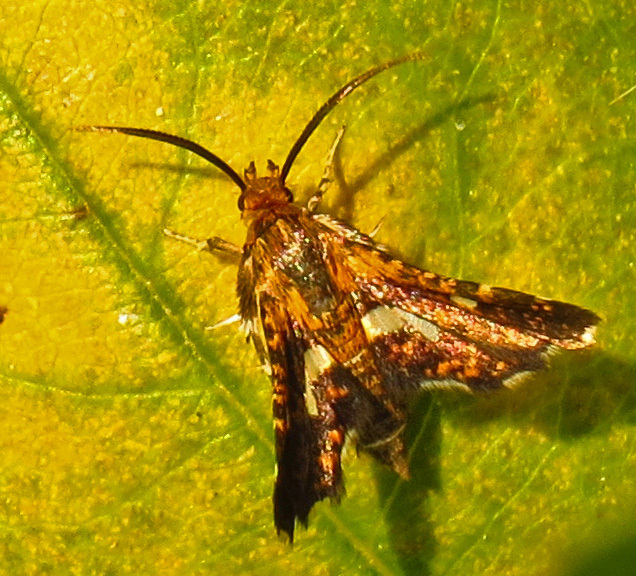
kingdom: Animalia
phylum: Arthropoda
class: Insecta
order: Lepidoptera
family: Thyrididae
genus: Thyris
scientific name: Thyris maculata
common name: Spotted thyris moth
